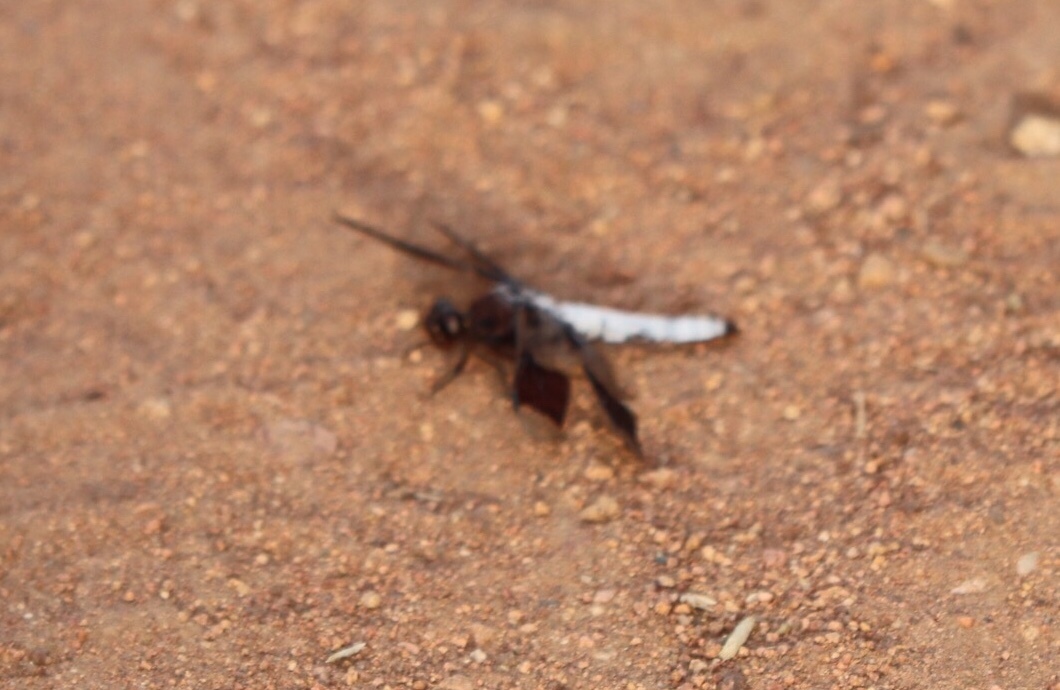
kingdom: Animalia
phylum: Arthropoda
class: Insecta
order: Odonata
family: Libellulidae
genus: Plathemis
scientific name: Plathemis lydia
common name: Common whitetail
